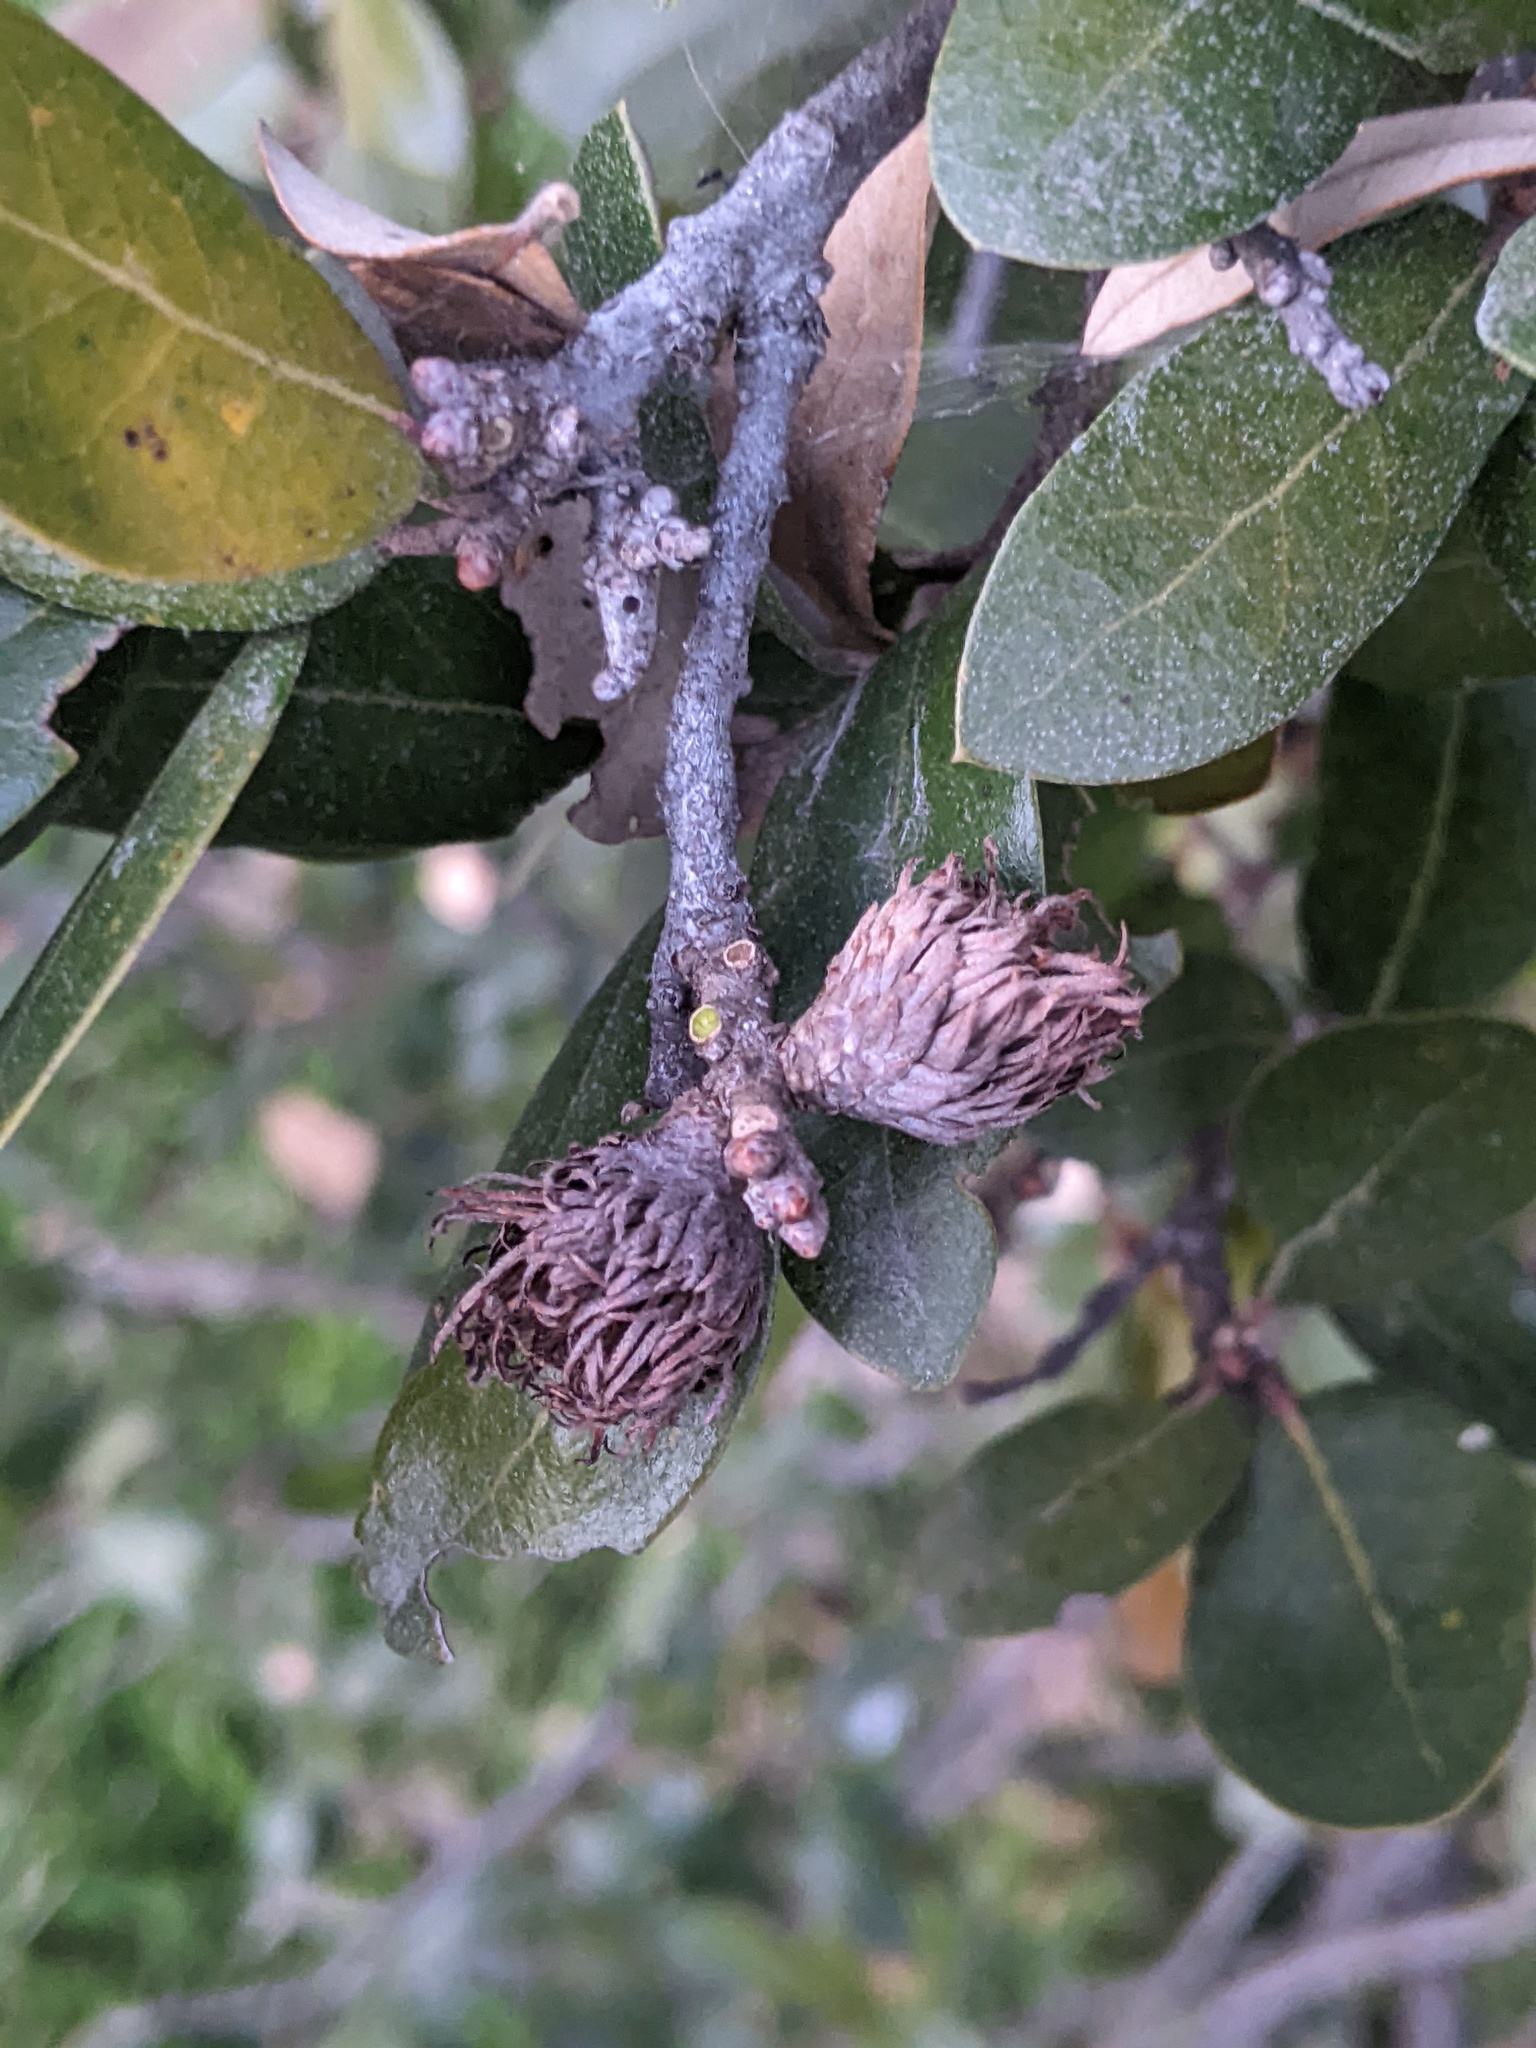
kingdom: Animalia
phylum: Arthropoda
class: Insecta
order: Hymenoptera
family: Cynipidae
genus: Andricus
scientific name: Andricus quercusfoliatus
